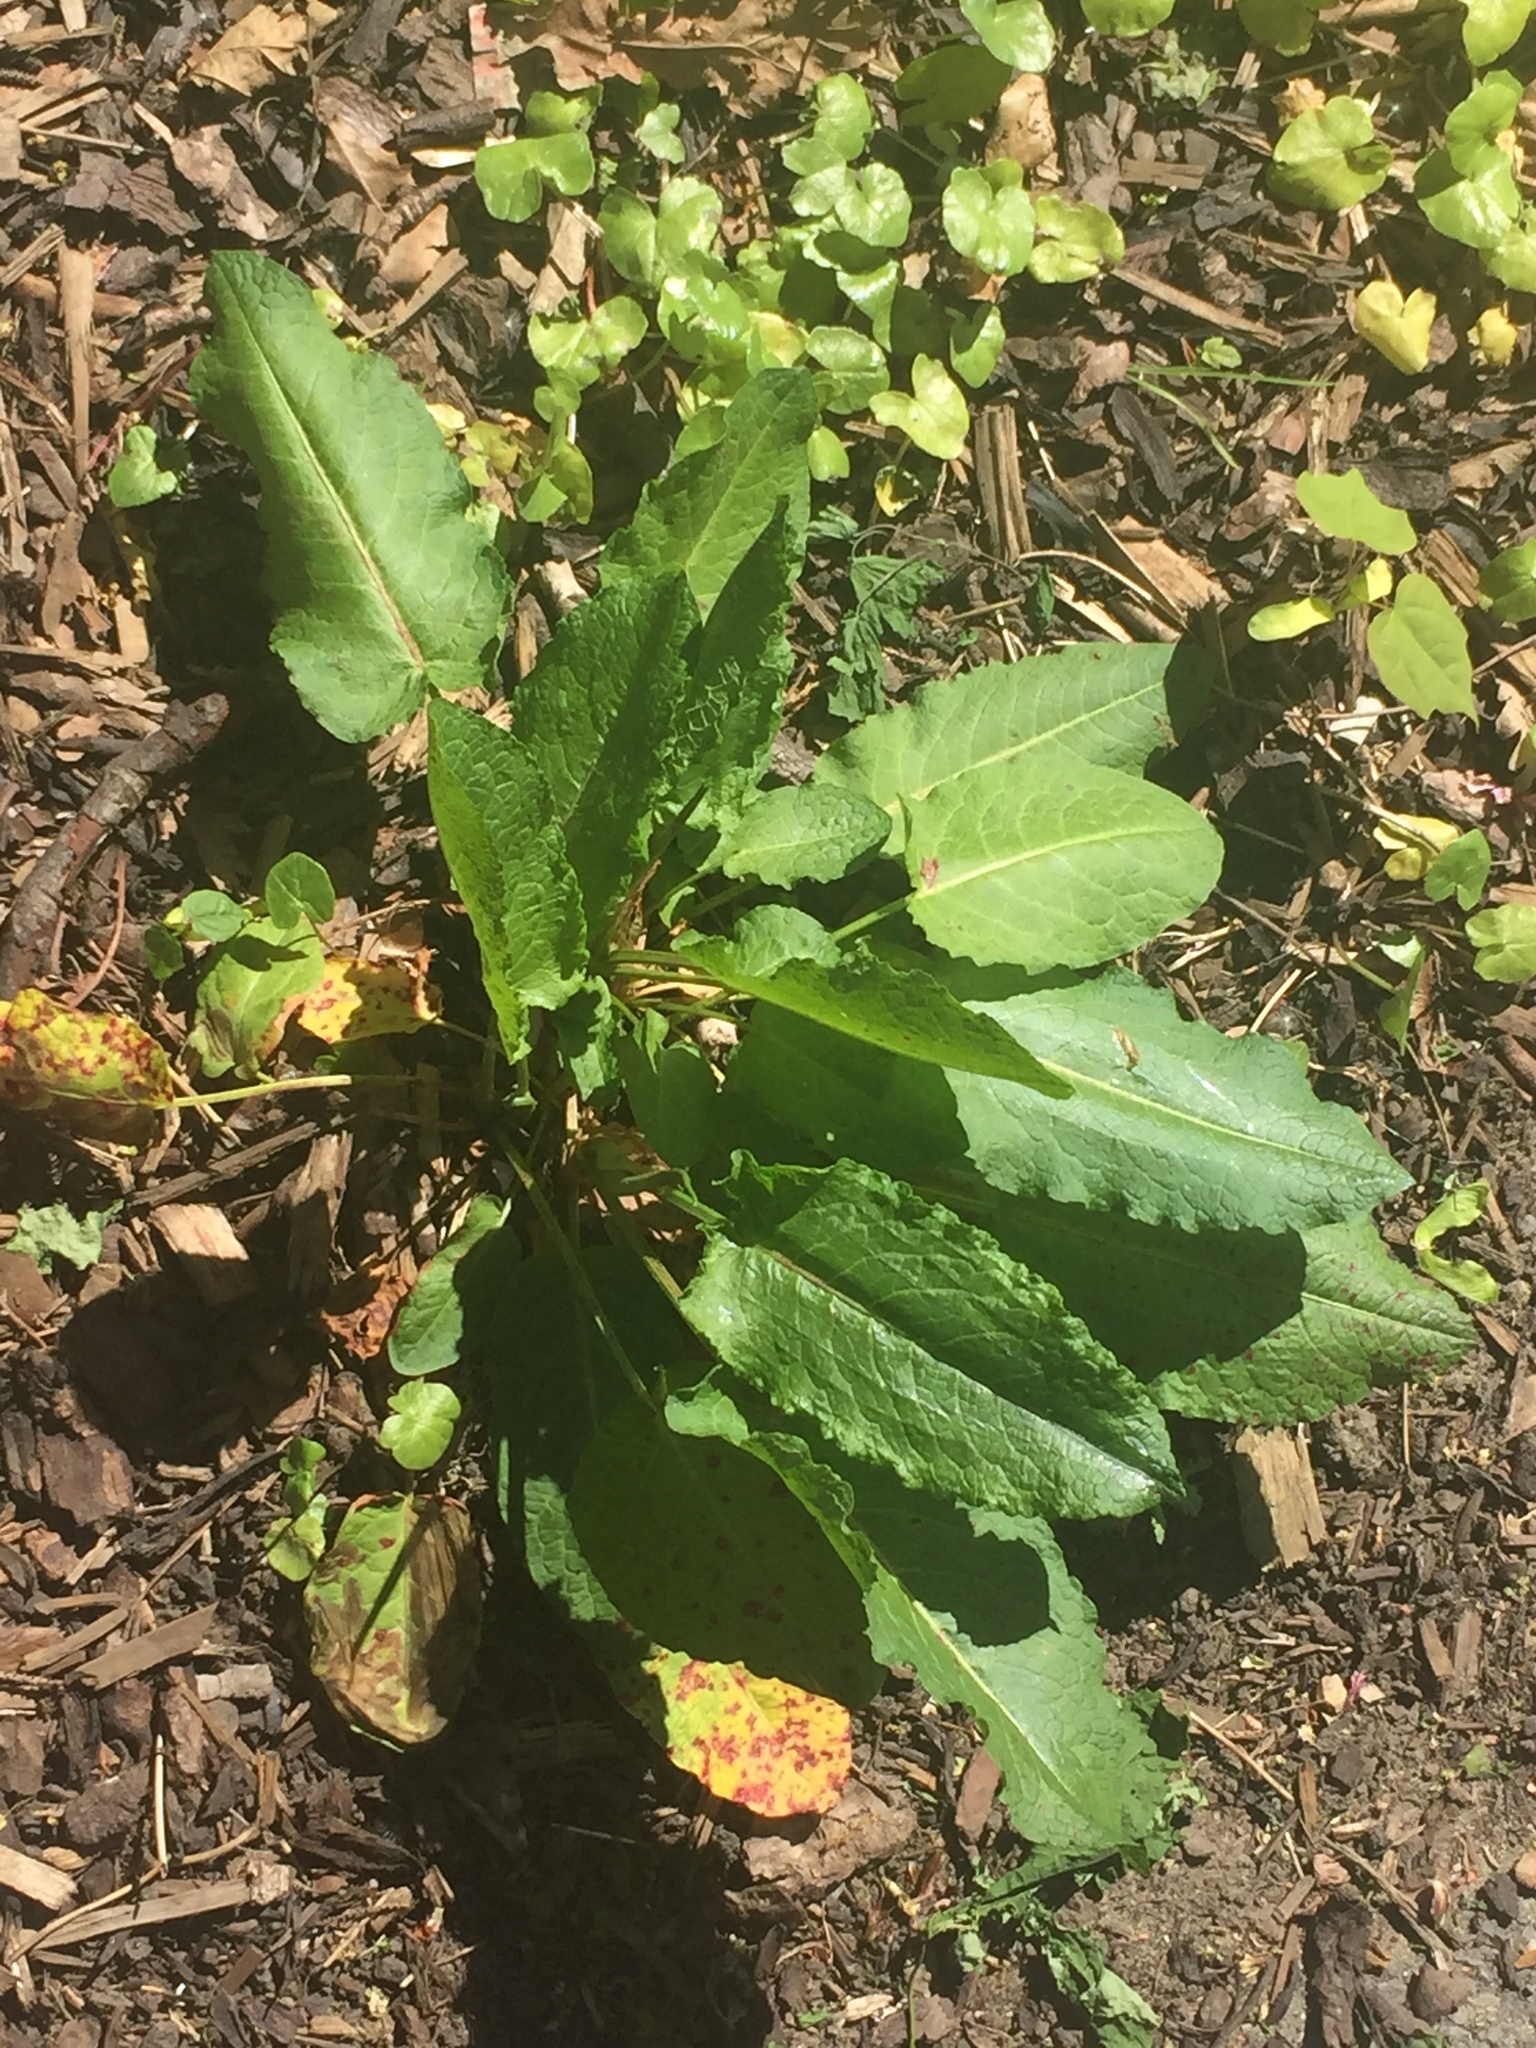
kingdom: Plantae
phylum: Tracheophyta
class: Magnoliopsida
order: Caryophyllales
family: Polygonaceae
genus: Rumex
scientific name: Rumex obtusifolius
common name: Bitter dock
